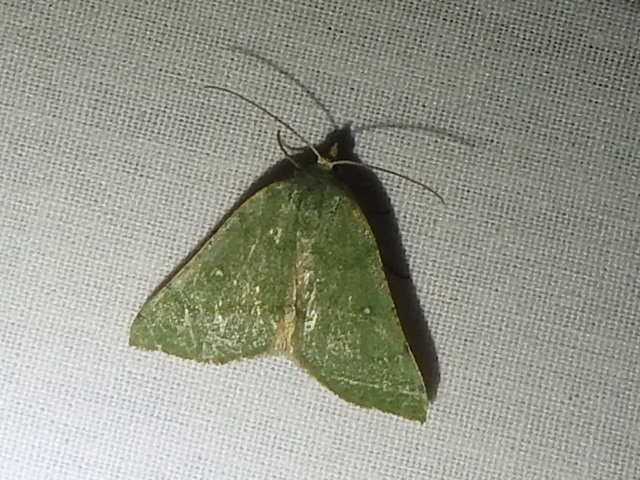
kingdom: Animalia
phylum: Arthropoda
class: Insecta
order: Lepidoptera
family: Geometridae
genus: Chloraspilates
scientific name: Chloraspilates bicoloraria
